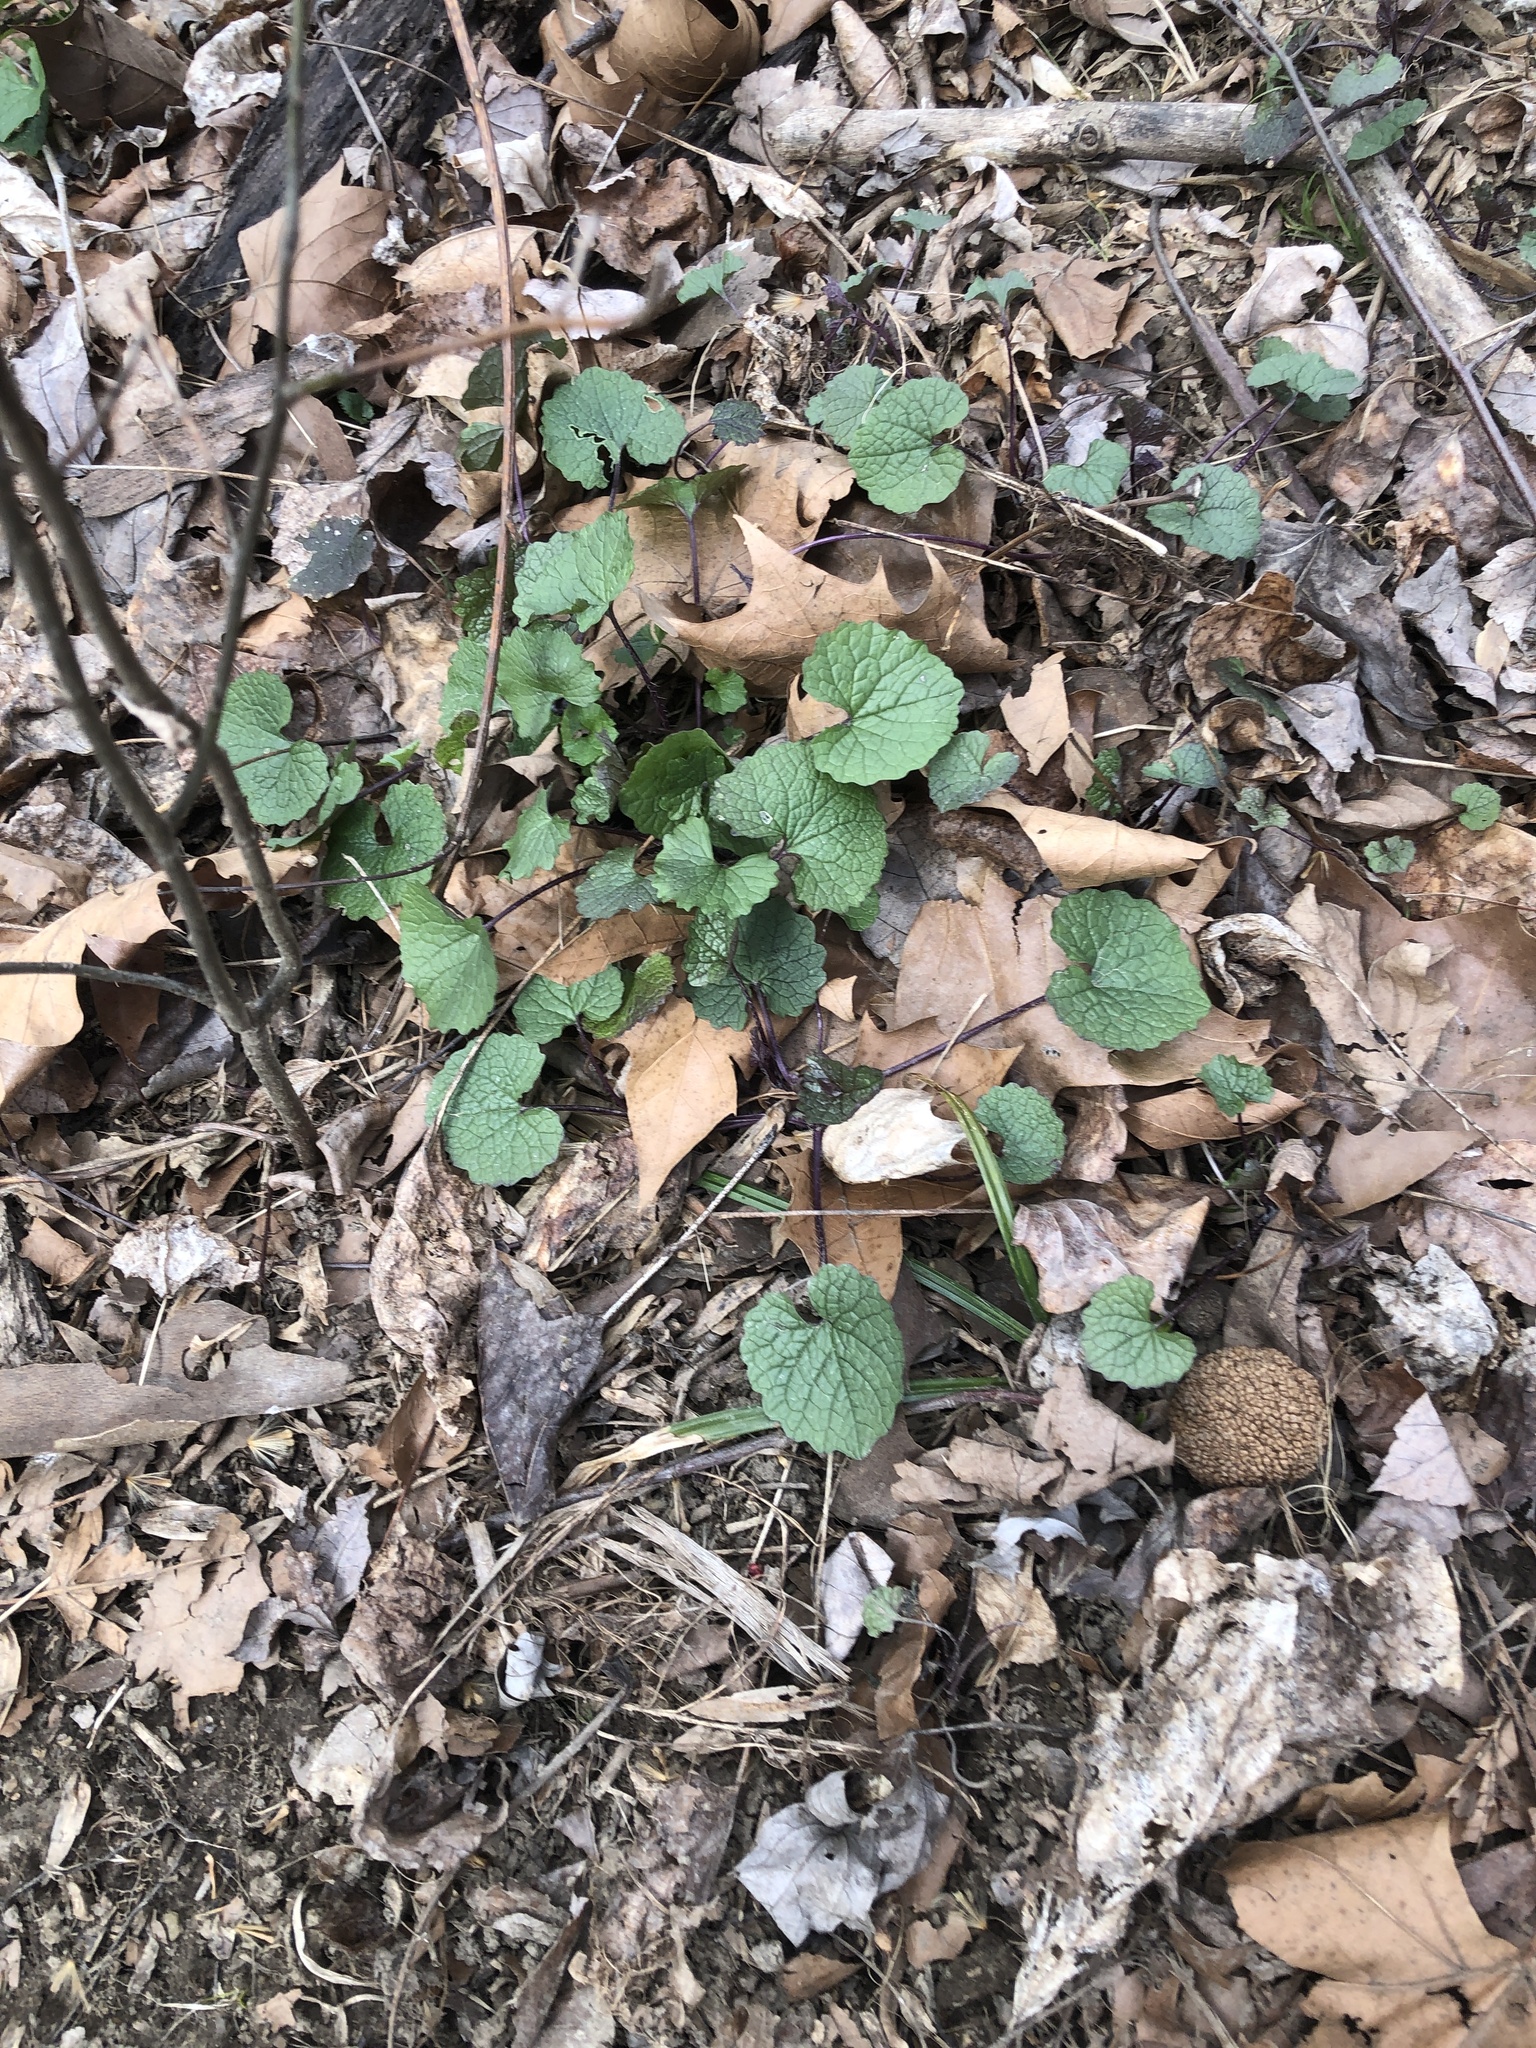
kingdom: Plantae
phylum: Tracheophyta
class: Magnoliopsida
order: Brassicales
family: Brassicaceae
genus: Alliaria
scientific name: Alliaria petiolata
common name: Garlic mustard
